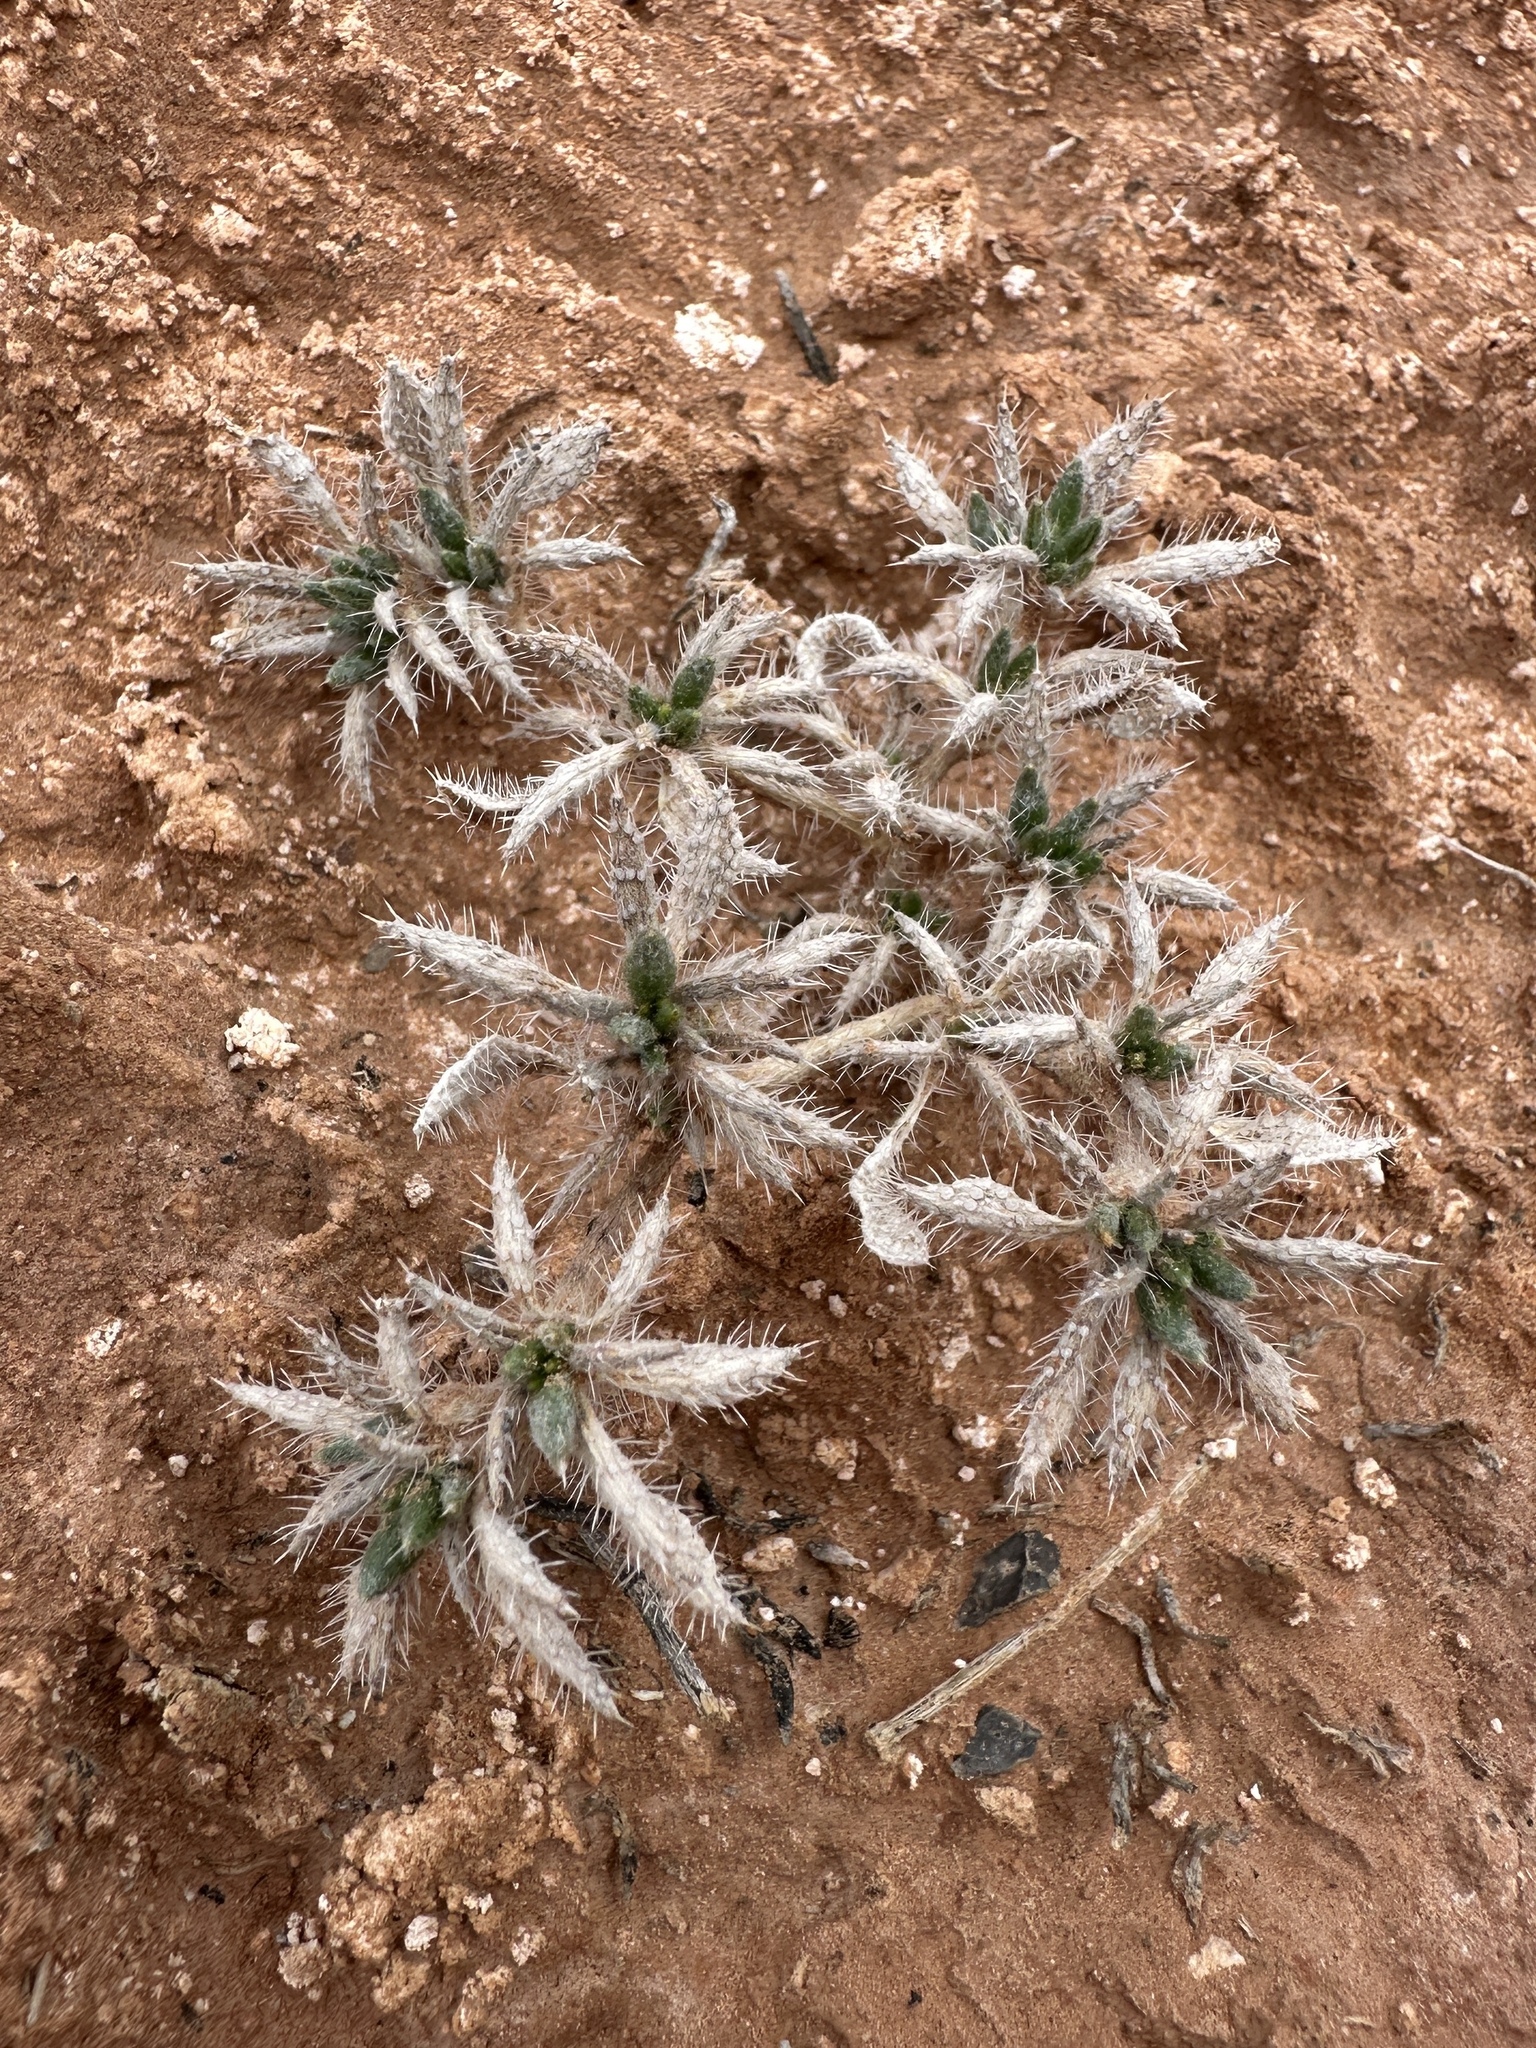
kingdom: Plantae
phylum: Tracheophyta
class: Magnoliopsida
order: Boraginales
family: Ehretiaceae
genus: Tiquilia
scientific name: Tiquilia latior
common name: Matted tiquilia
